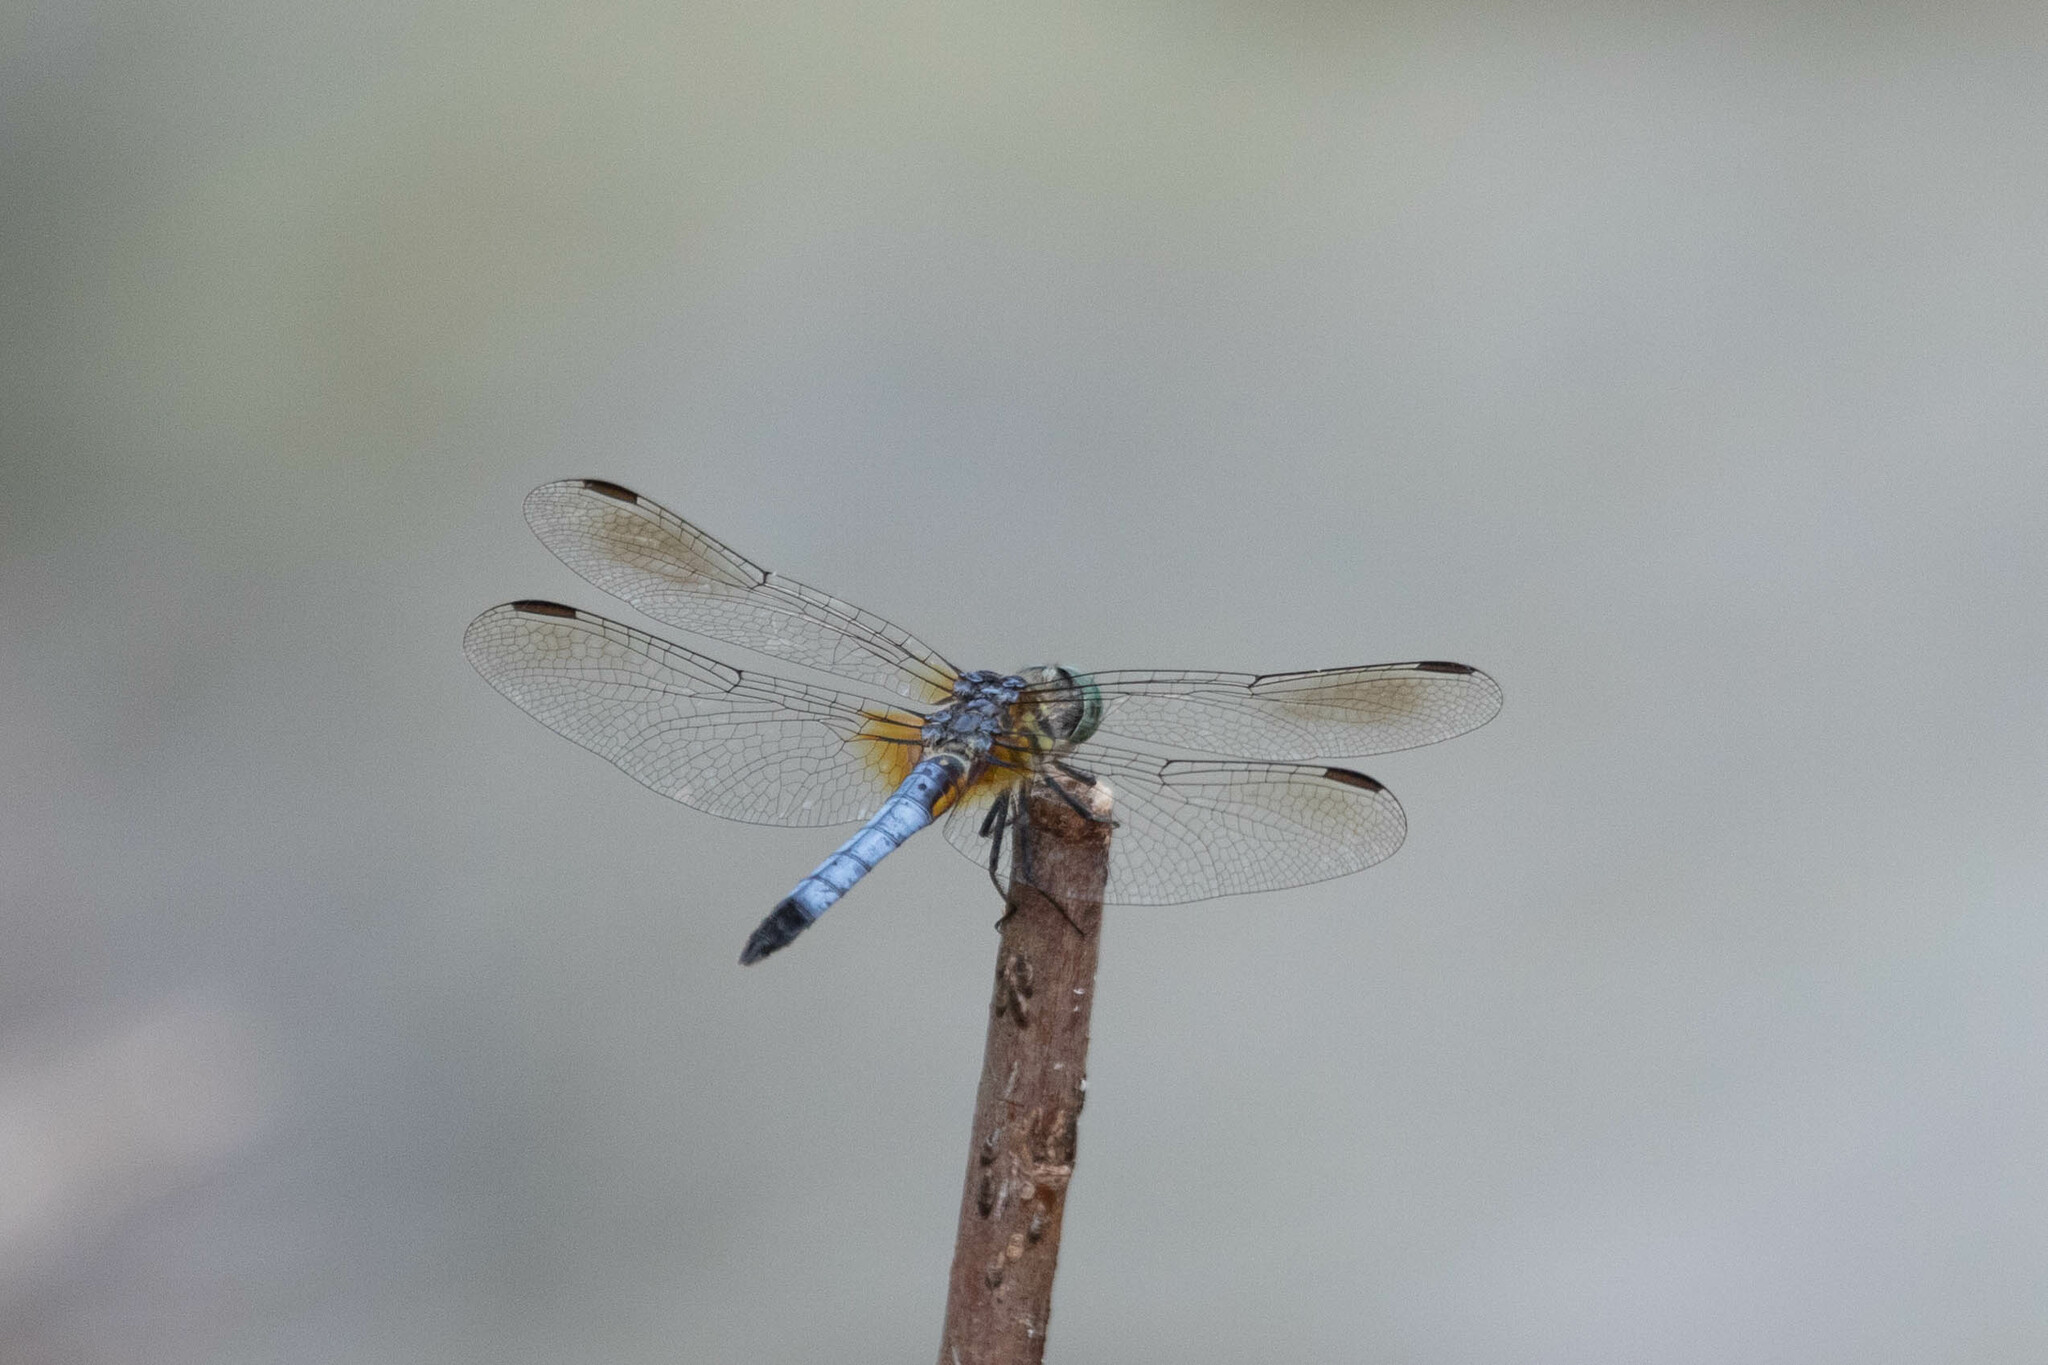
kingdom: Animalia
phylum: Arthropoda
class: Insecta
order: Odonata
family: Libellulidae
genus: Pachydiplax
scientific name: Pachydiplax longipennis
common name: Blue dasher
